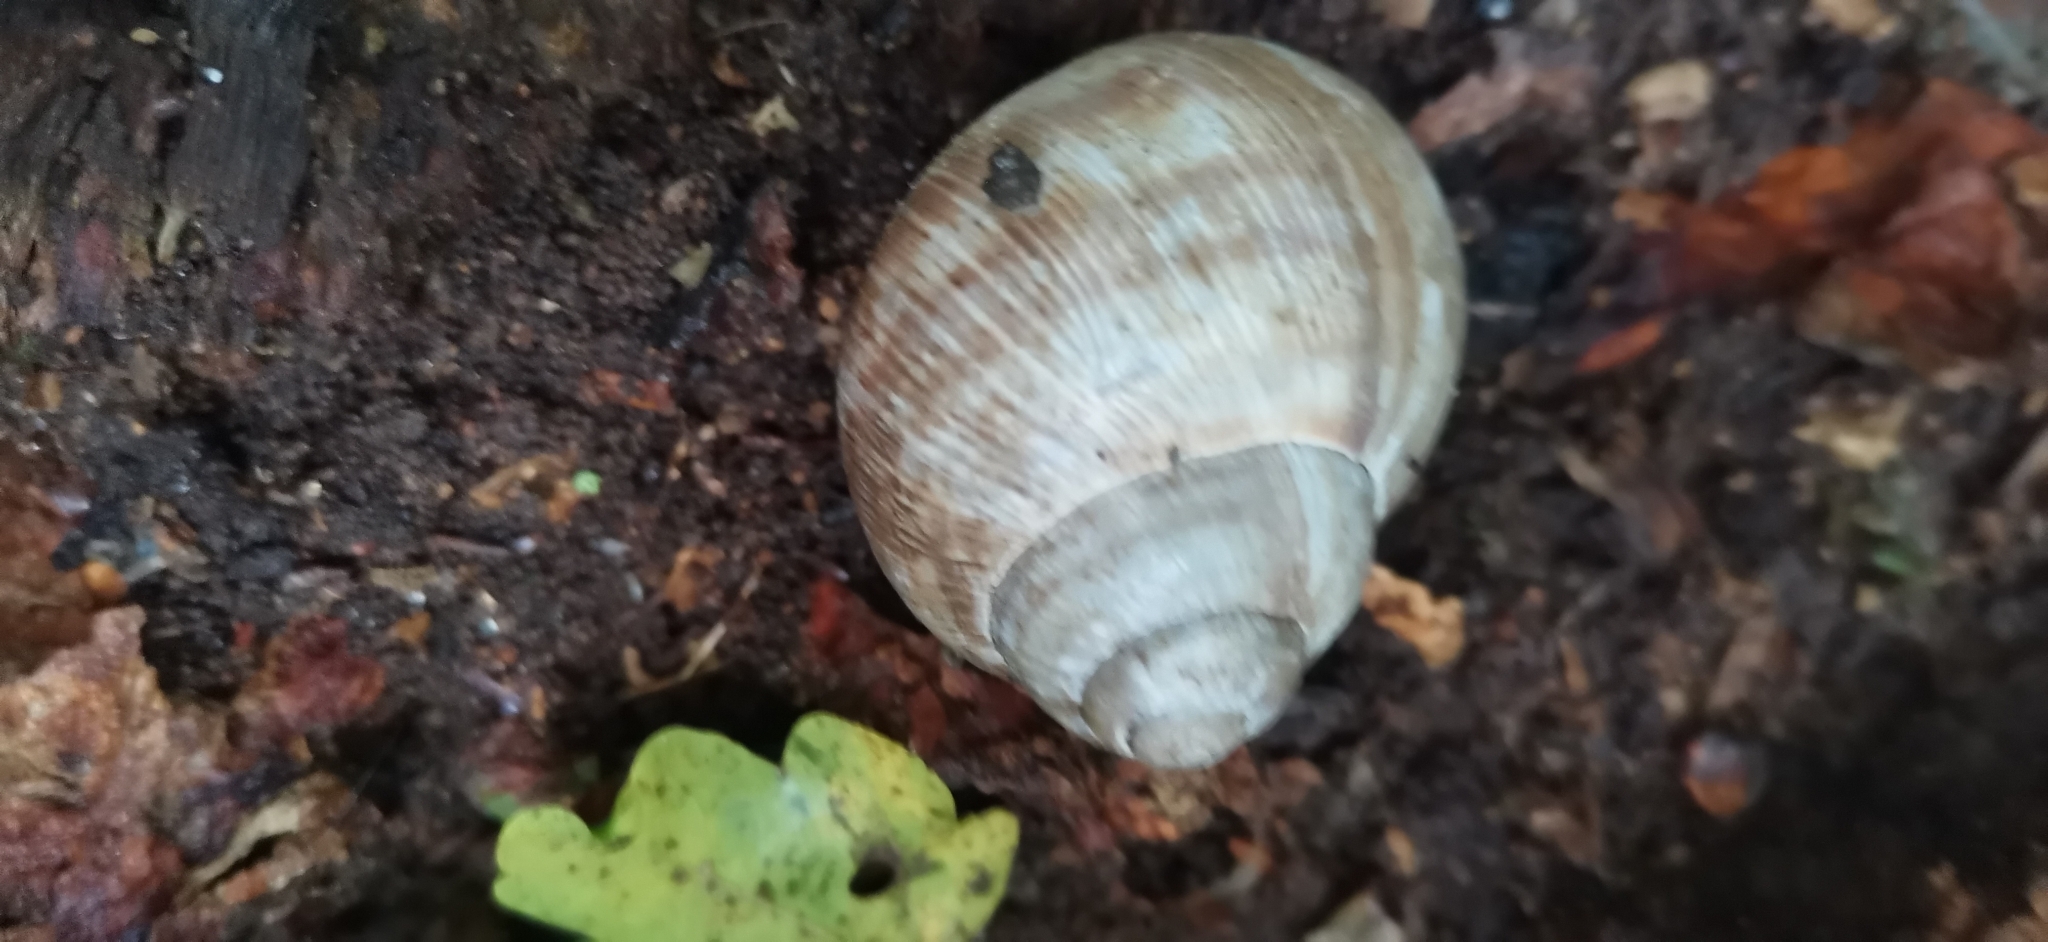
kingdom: Animalia
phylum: Mollusca
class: Gastropoda
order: Stylommatophora
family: Helicidae
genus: Helix
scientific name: Helix pomatia
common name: Roman snail
